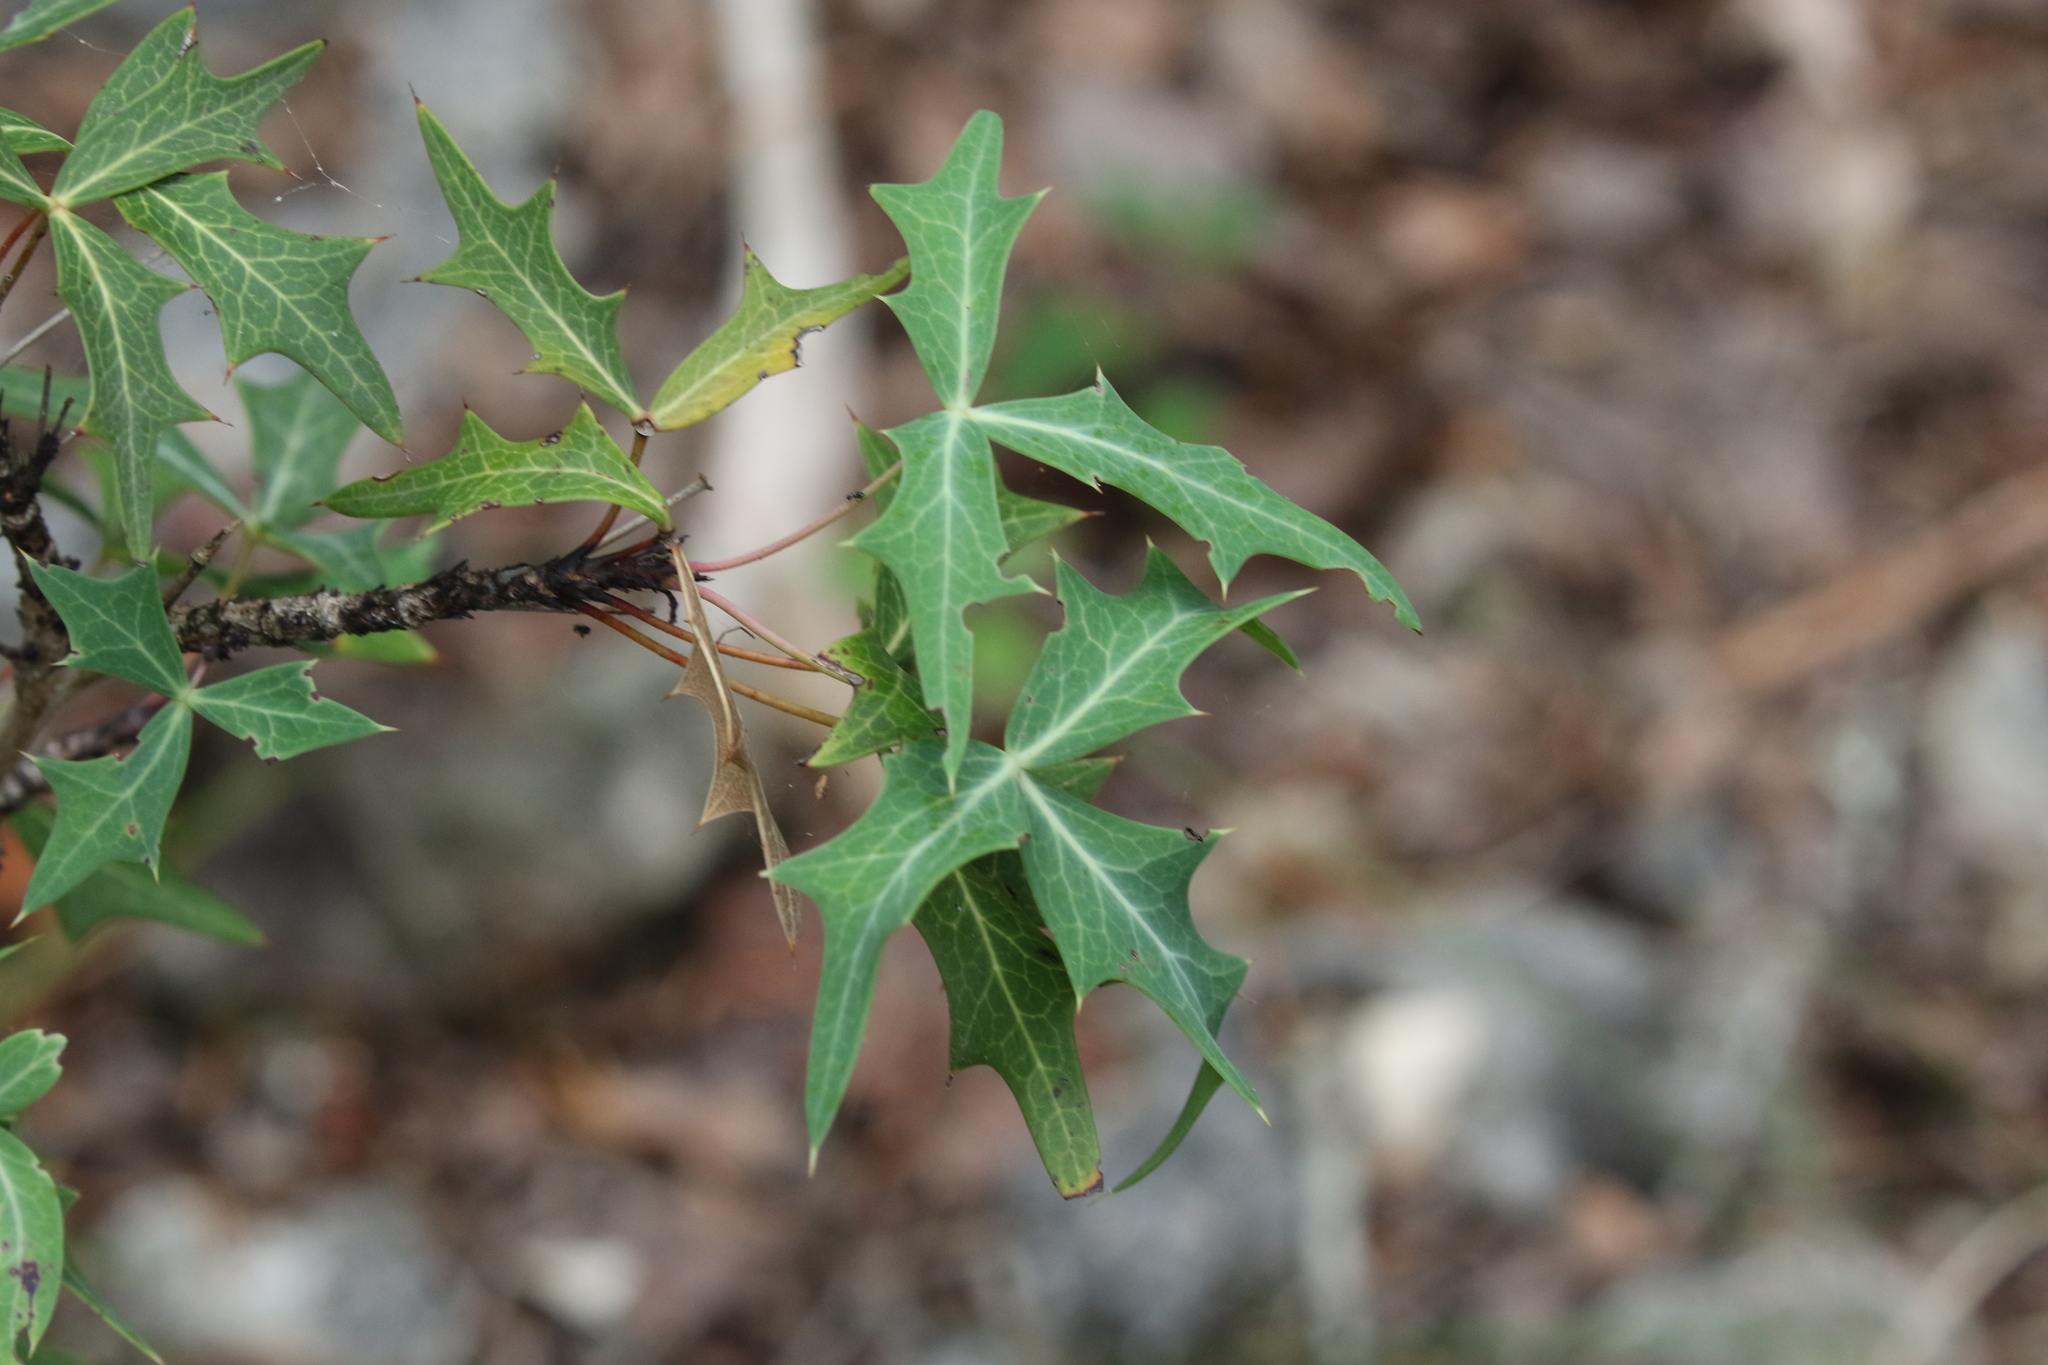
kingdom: Plantae
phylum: Tracheophyta
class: Magnoliopsida
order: Ranunculales
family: Berberidaceae
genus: Alloberberis
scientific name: Alloberberis trifoliolata
